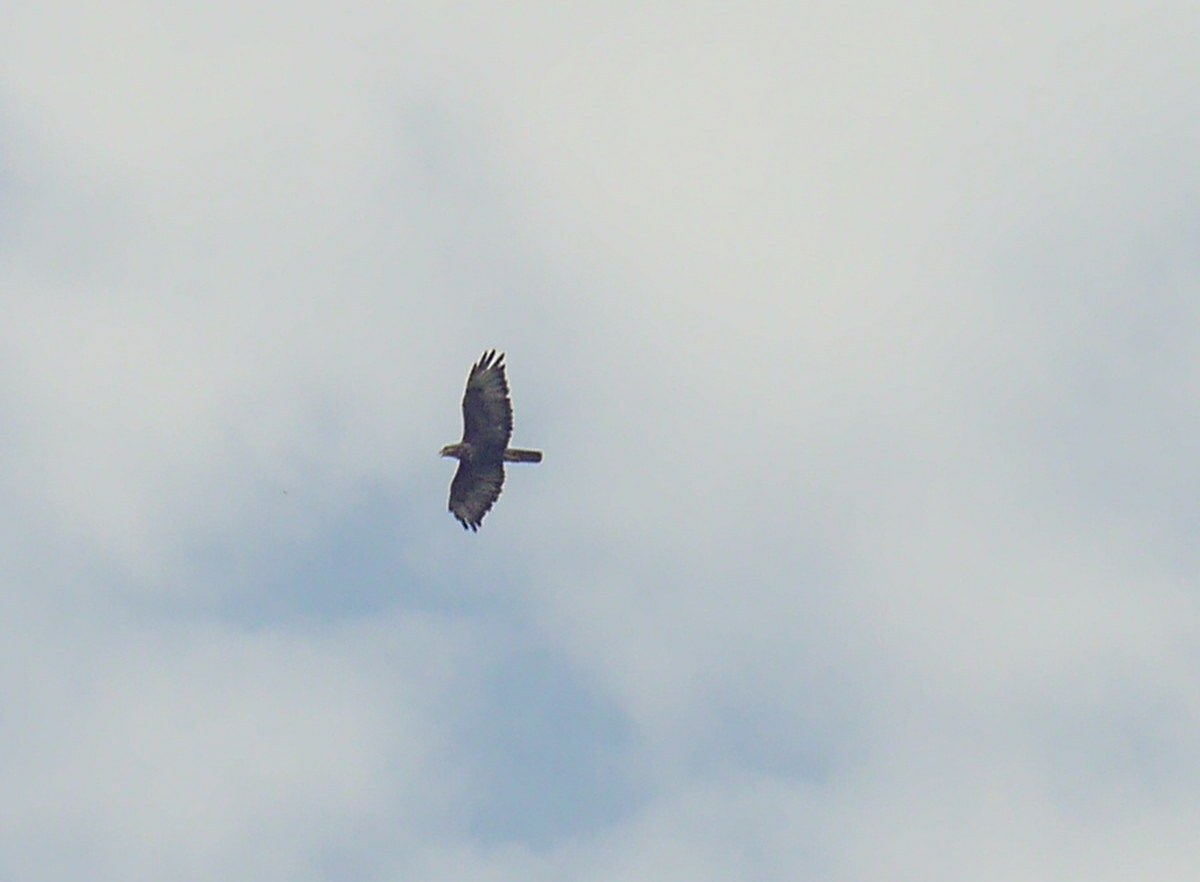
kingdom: Animalia
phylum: Chordata
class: Aves
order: Accipitriformes
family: Accipitridae
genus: Buteo
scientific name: Buteo buteo
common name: Common buzzard
